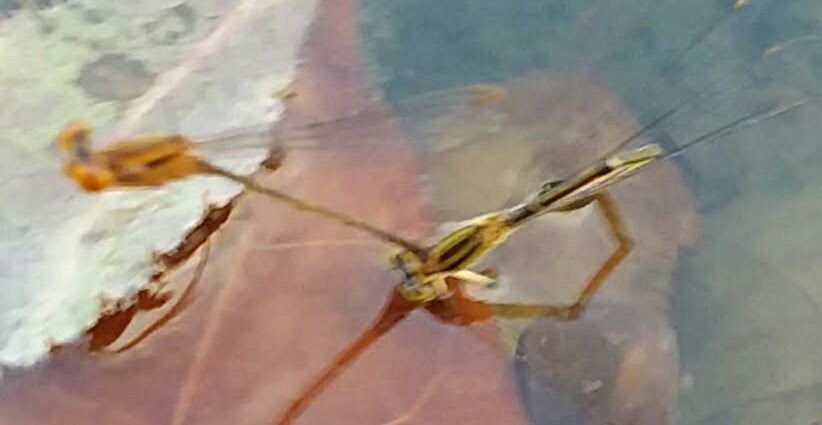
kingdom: Animalia
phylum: Arthropoda
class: Insecta
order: Odonata
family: Coenagrionidae
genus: Enallagma
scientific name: Enallagma signatum
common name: Orange bluet
